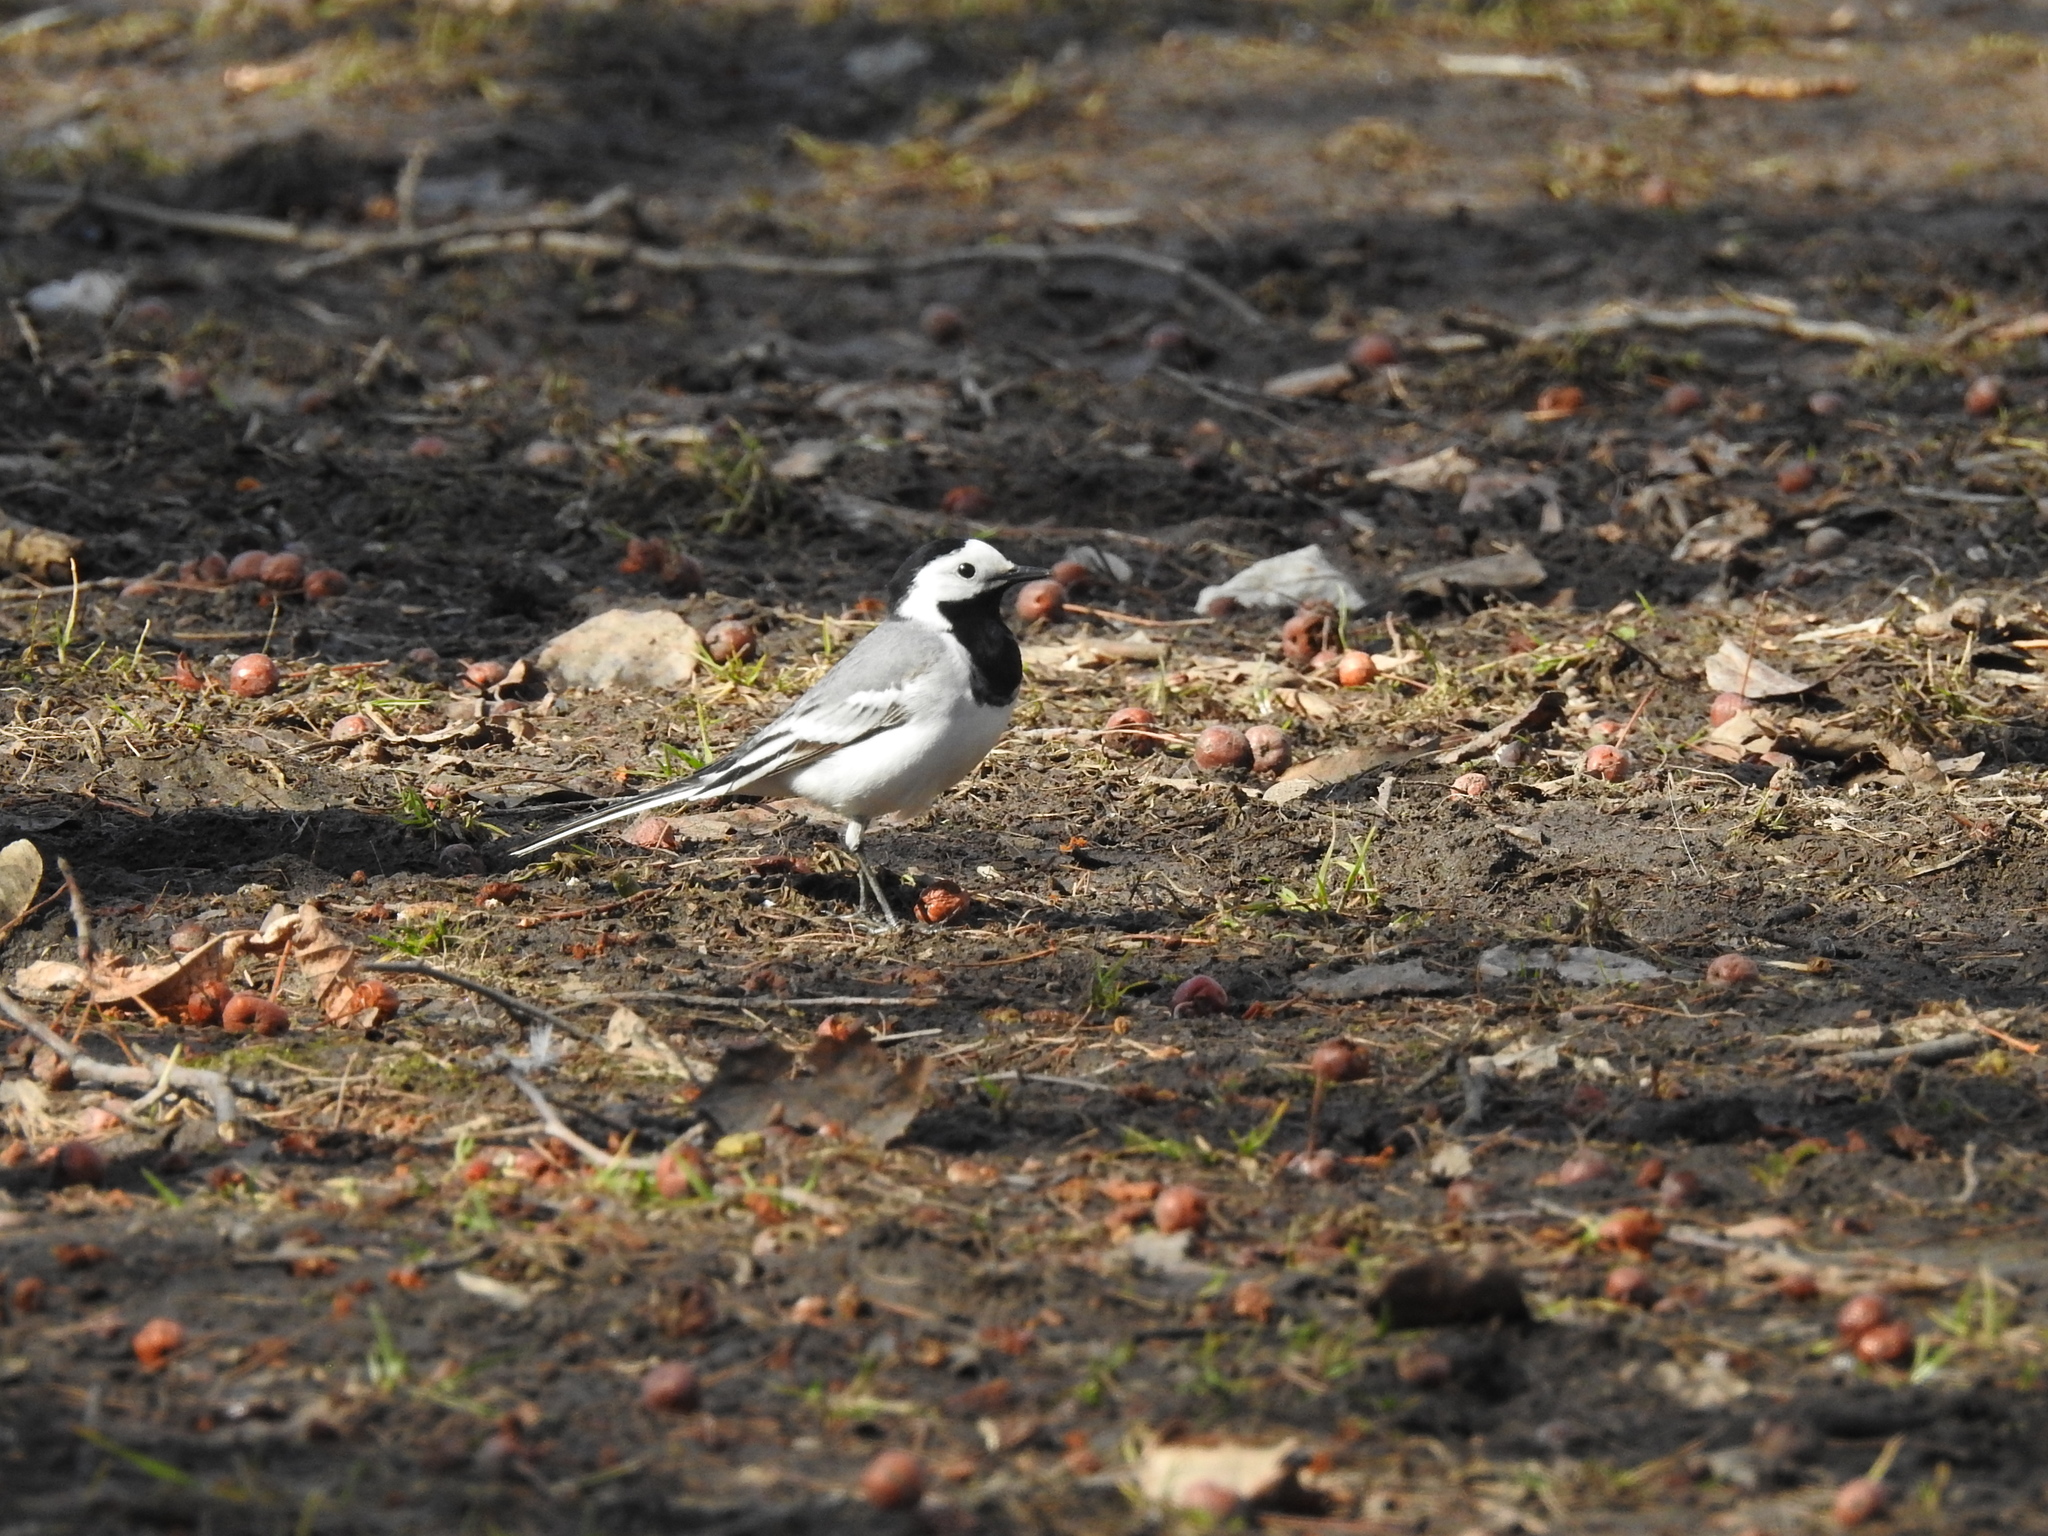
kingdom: Animalia
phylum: Chordata
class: Aves
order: Passeriformes
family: Motacillidae
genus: Motacilla
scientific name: Motacilla alba
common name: White wagtail
